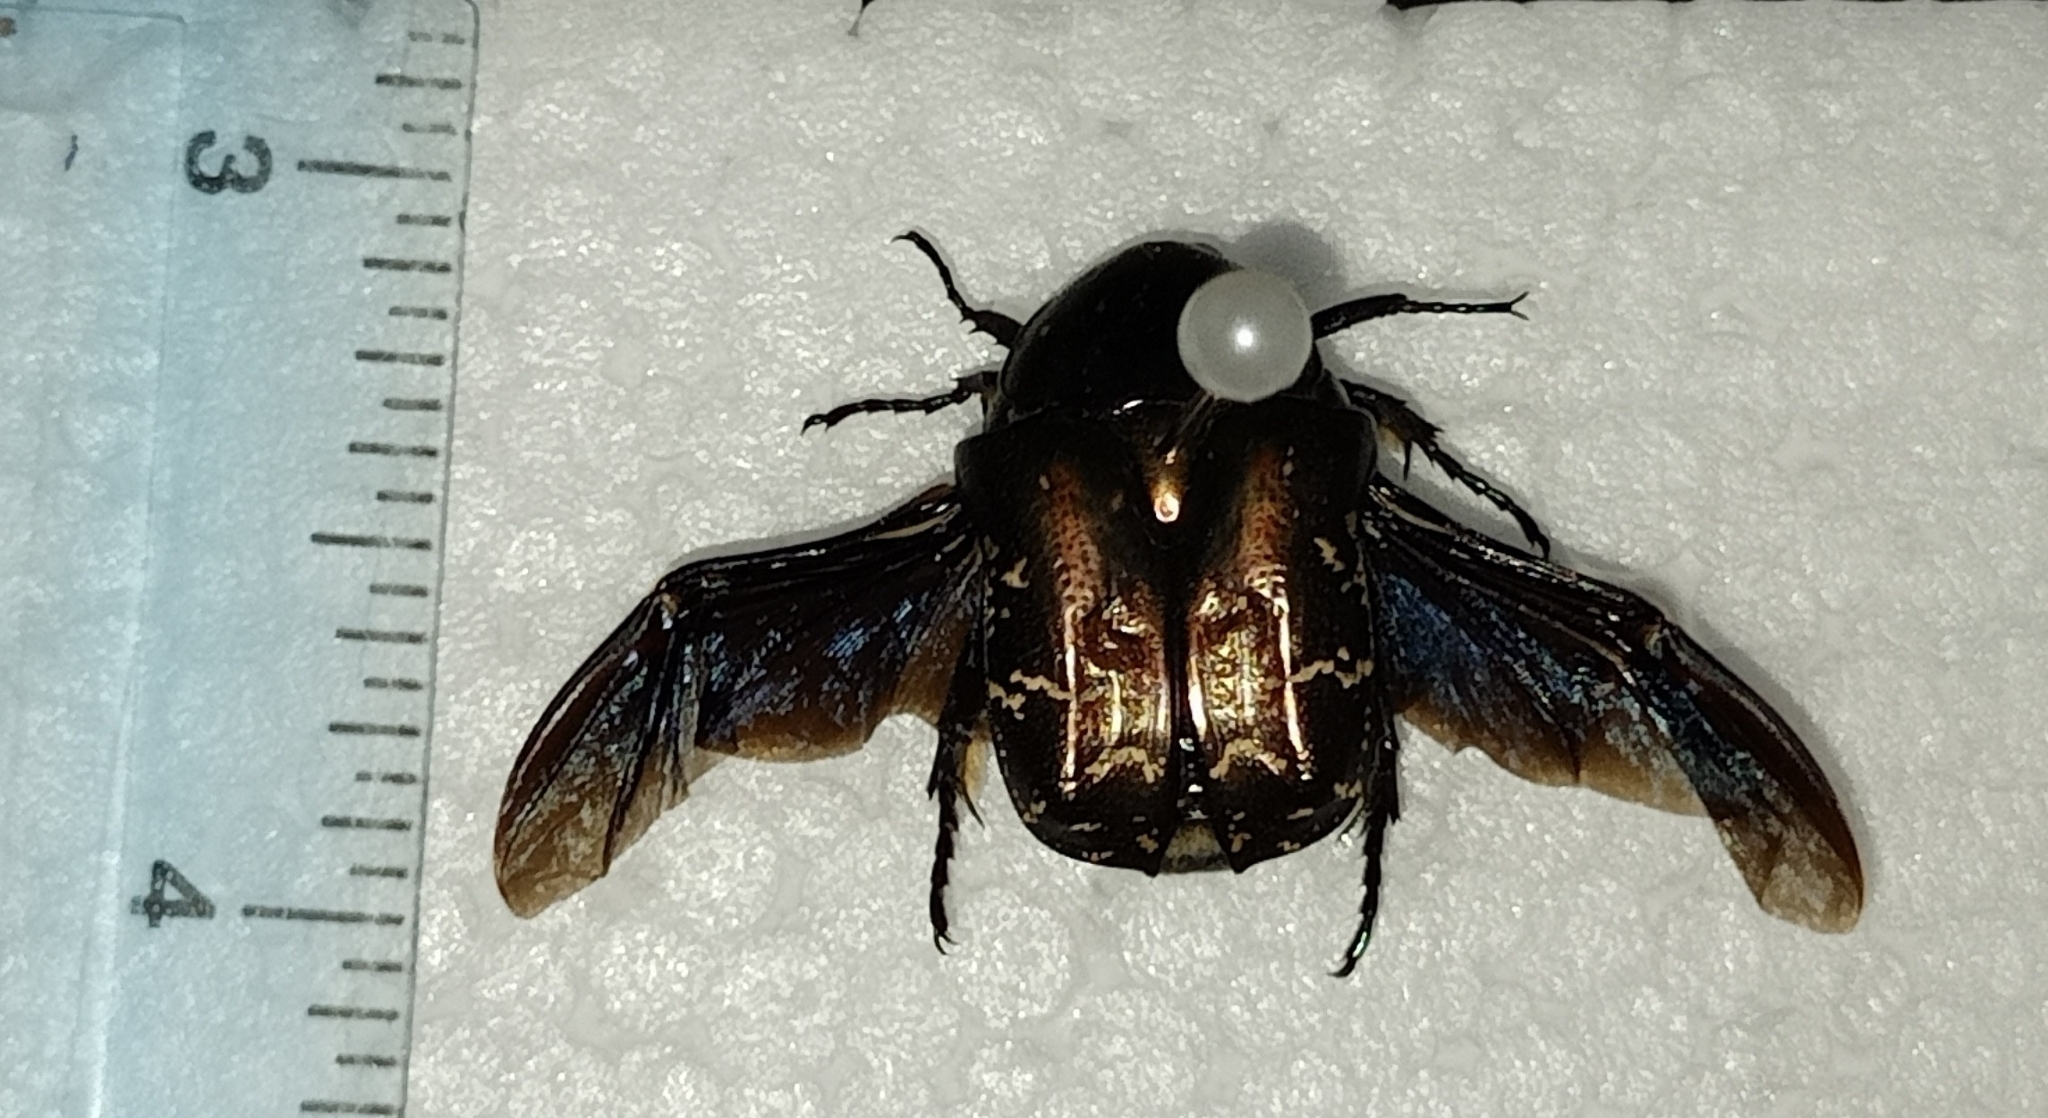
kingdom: Animalia
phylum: Arthropoda
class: Insecta
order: Coleoptera
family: Scarabaeidae
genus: Protaetia
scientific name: Protaetia cuprea
